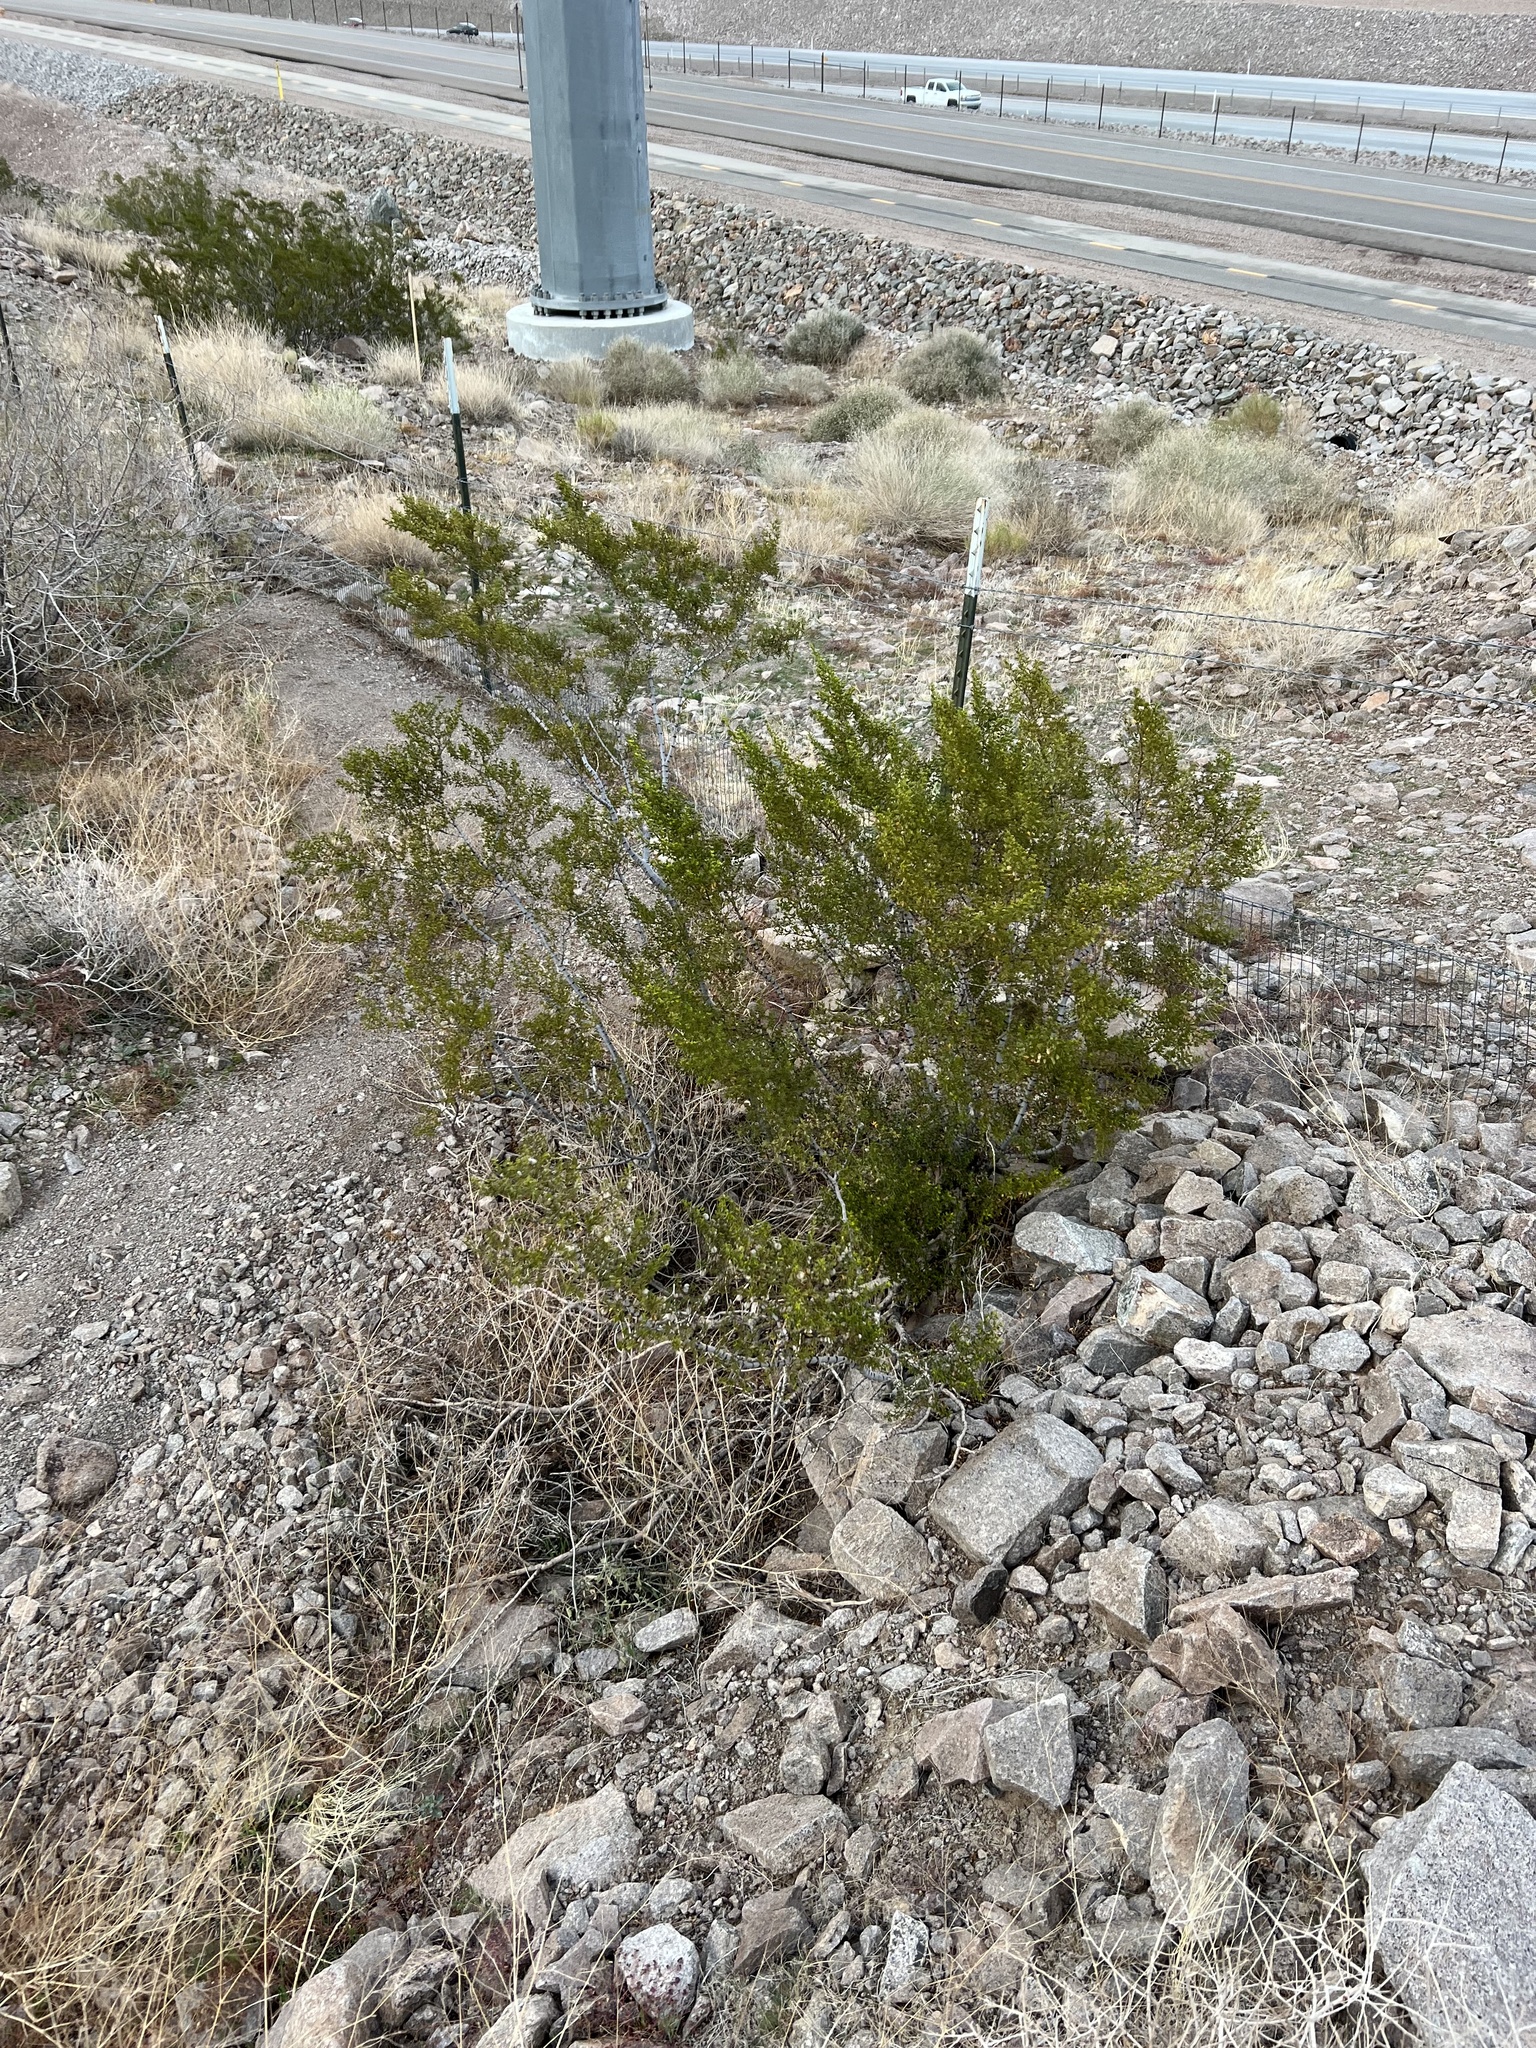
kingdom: Plantae
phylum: Tracheophyta
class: Magnoliopsida
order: Zygophyllales
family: Zygophyllaceae
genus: Larrea
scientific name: Larrea tridentata
